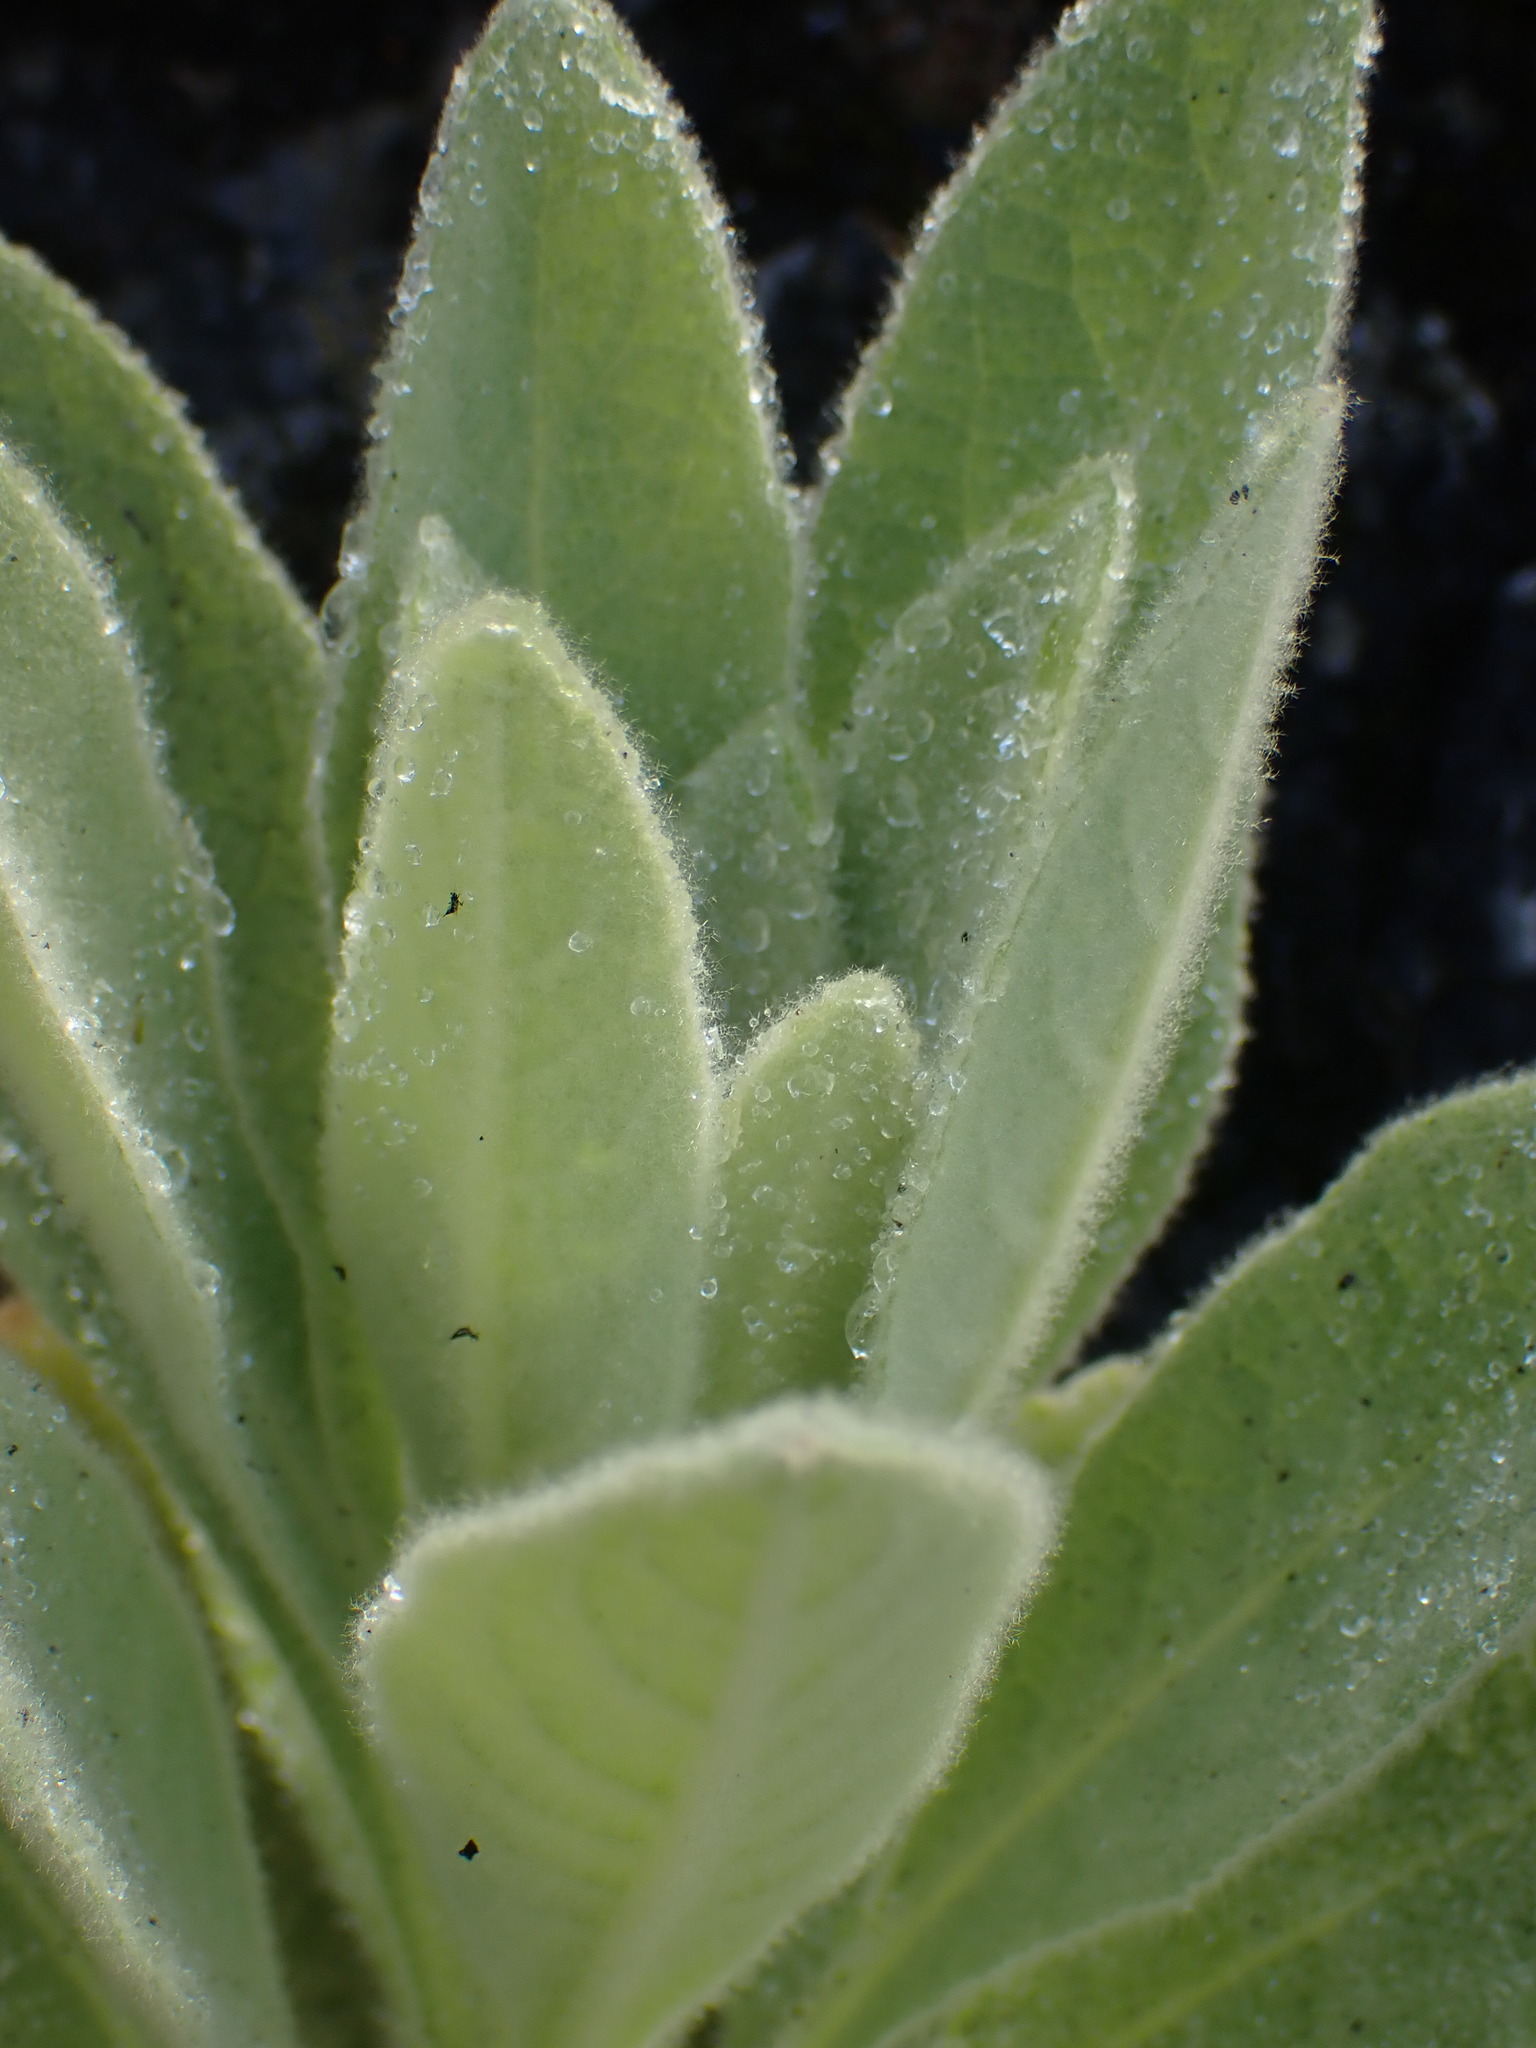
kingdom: Plantae
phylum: Tracheophyta
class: Magnoliopsida
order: Lamiales
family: Scrophulariaceae
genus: Verbascum
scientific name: Verbascum thapsus
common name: Common mullein
